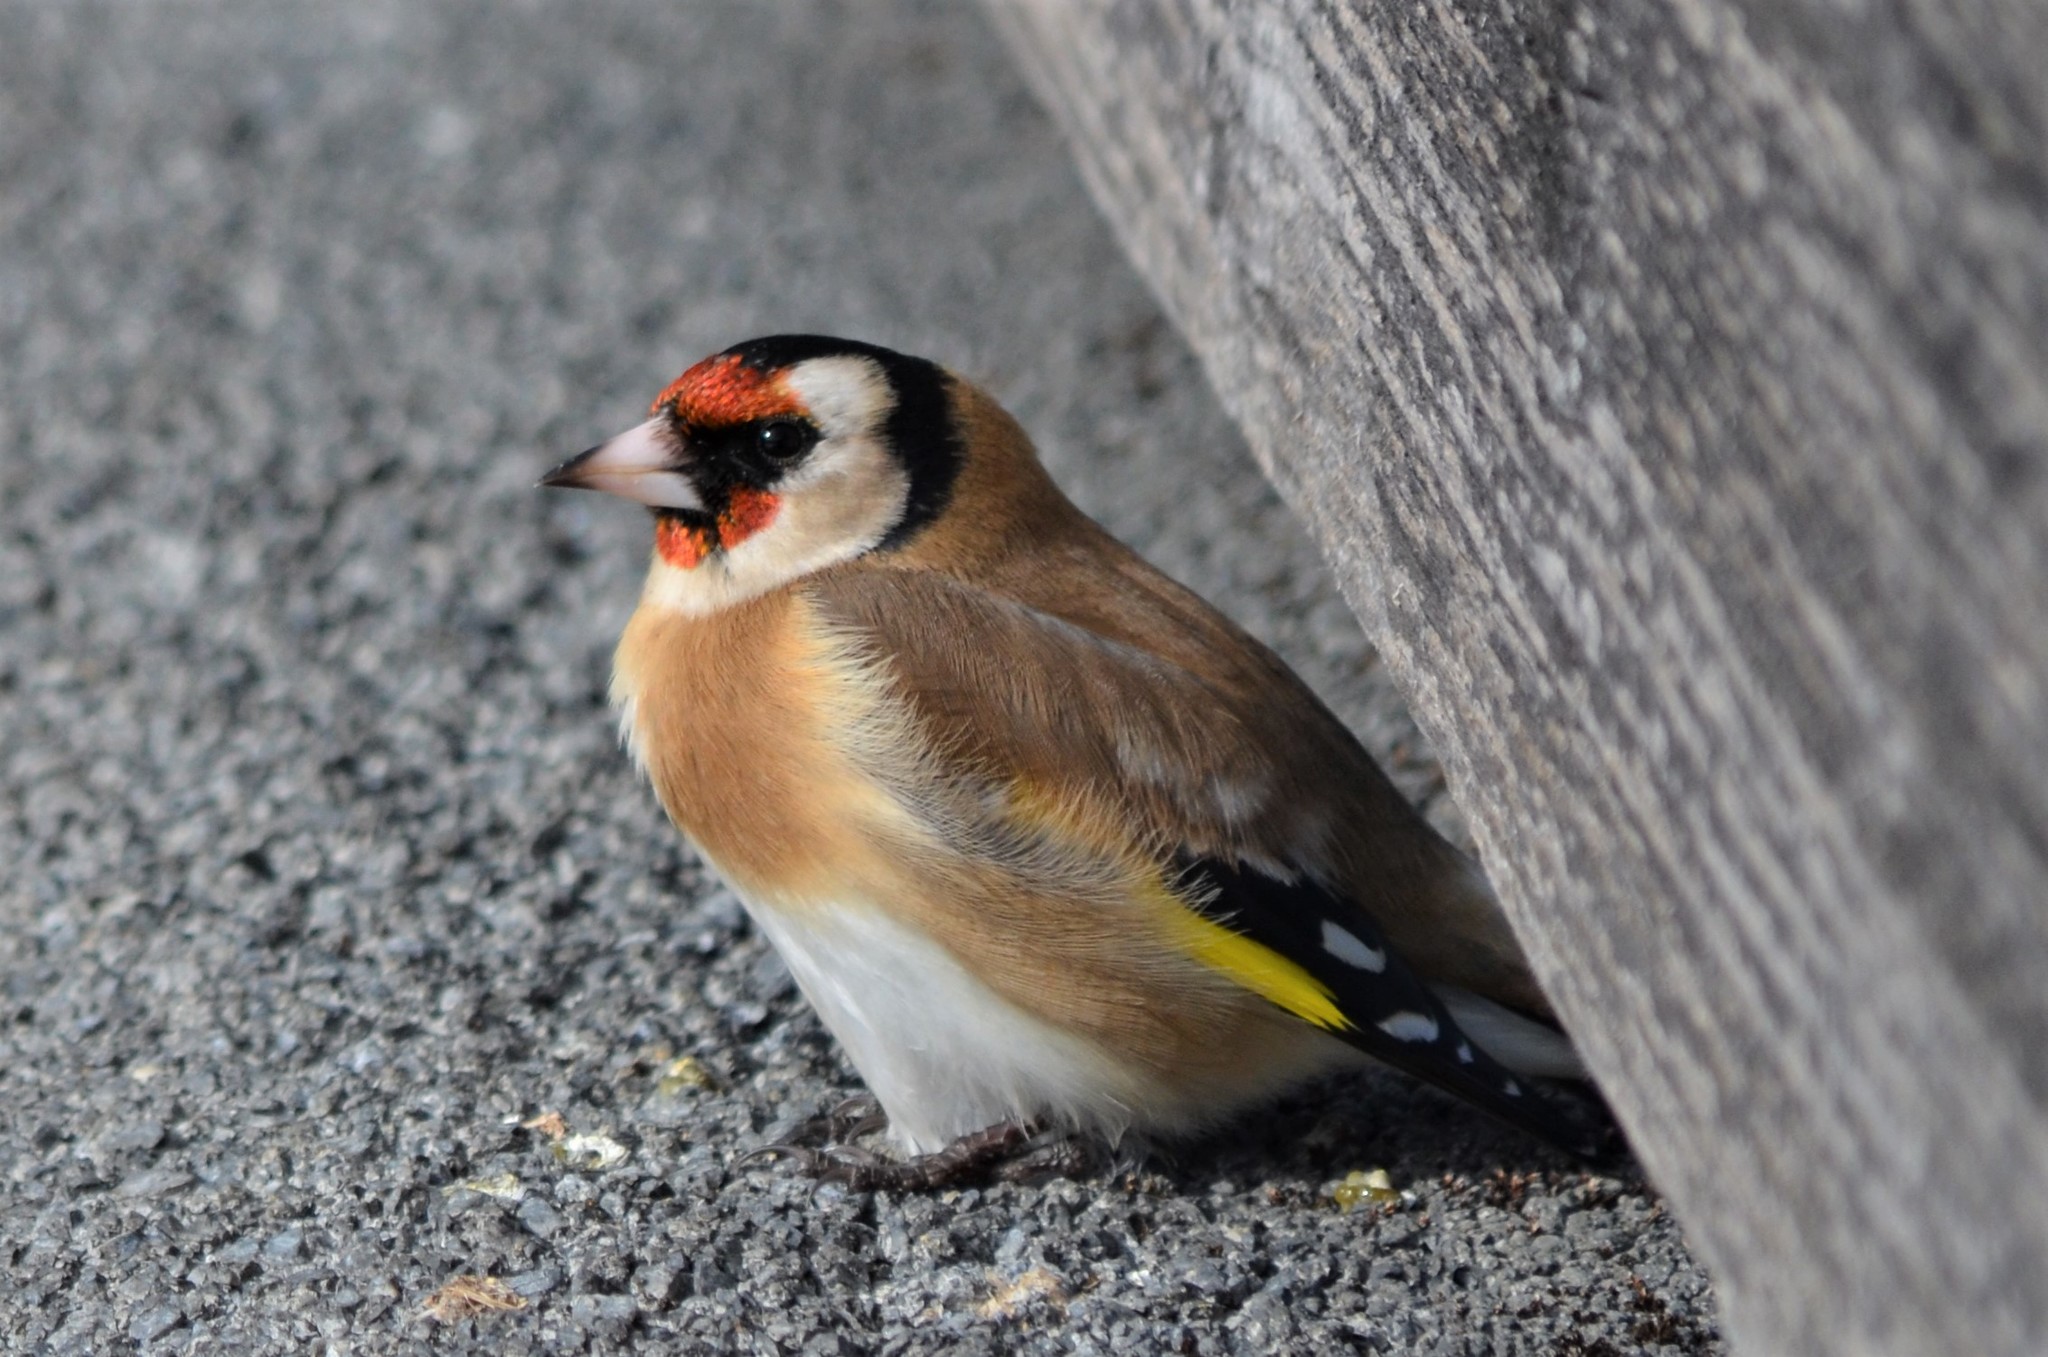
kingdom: Animalia
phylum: Chordata
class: Aves
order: Passeriformes
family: Fringillidae
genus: Carduelis
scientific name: Carduelis carduelis
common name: European goldfinch
